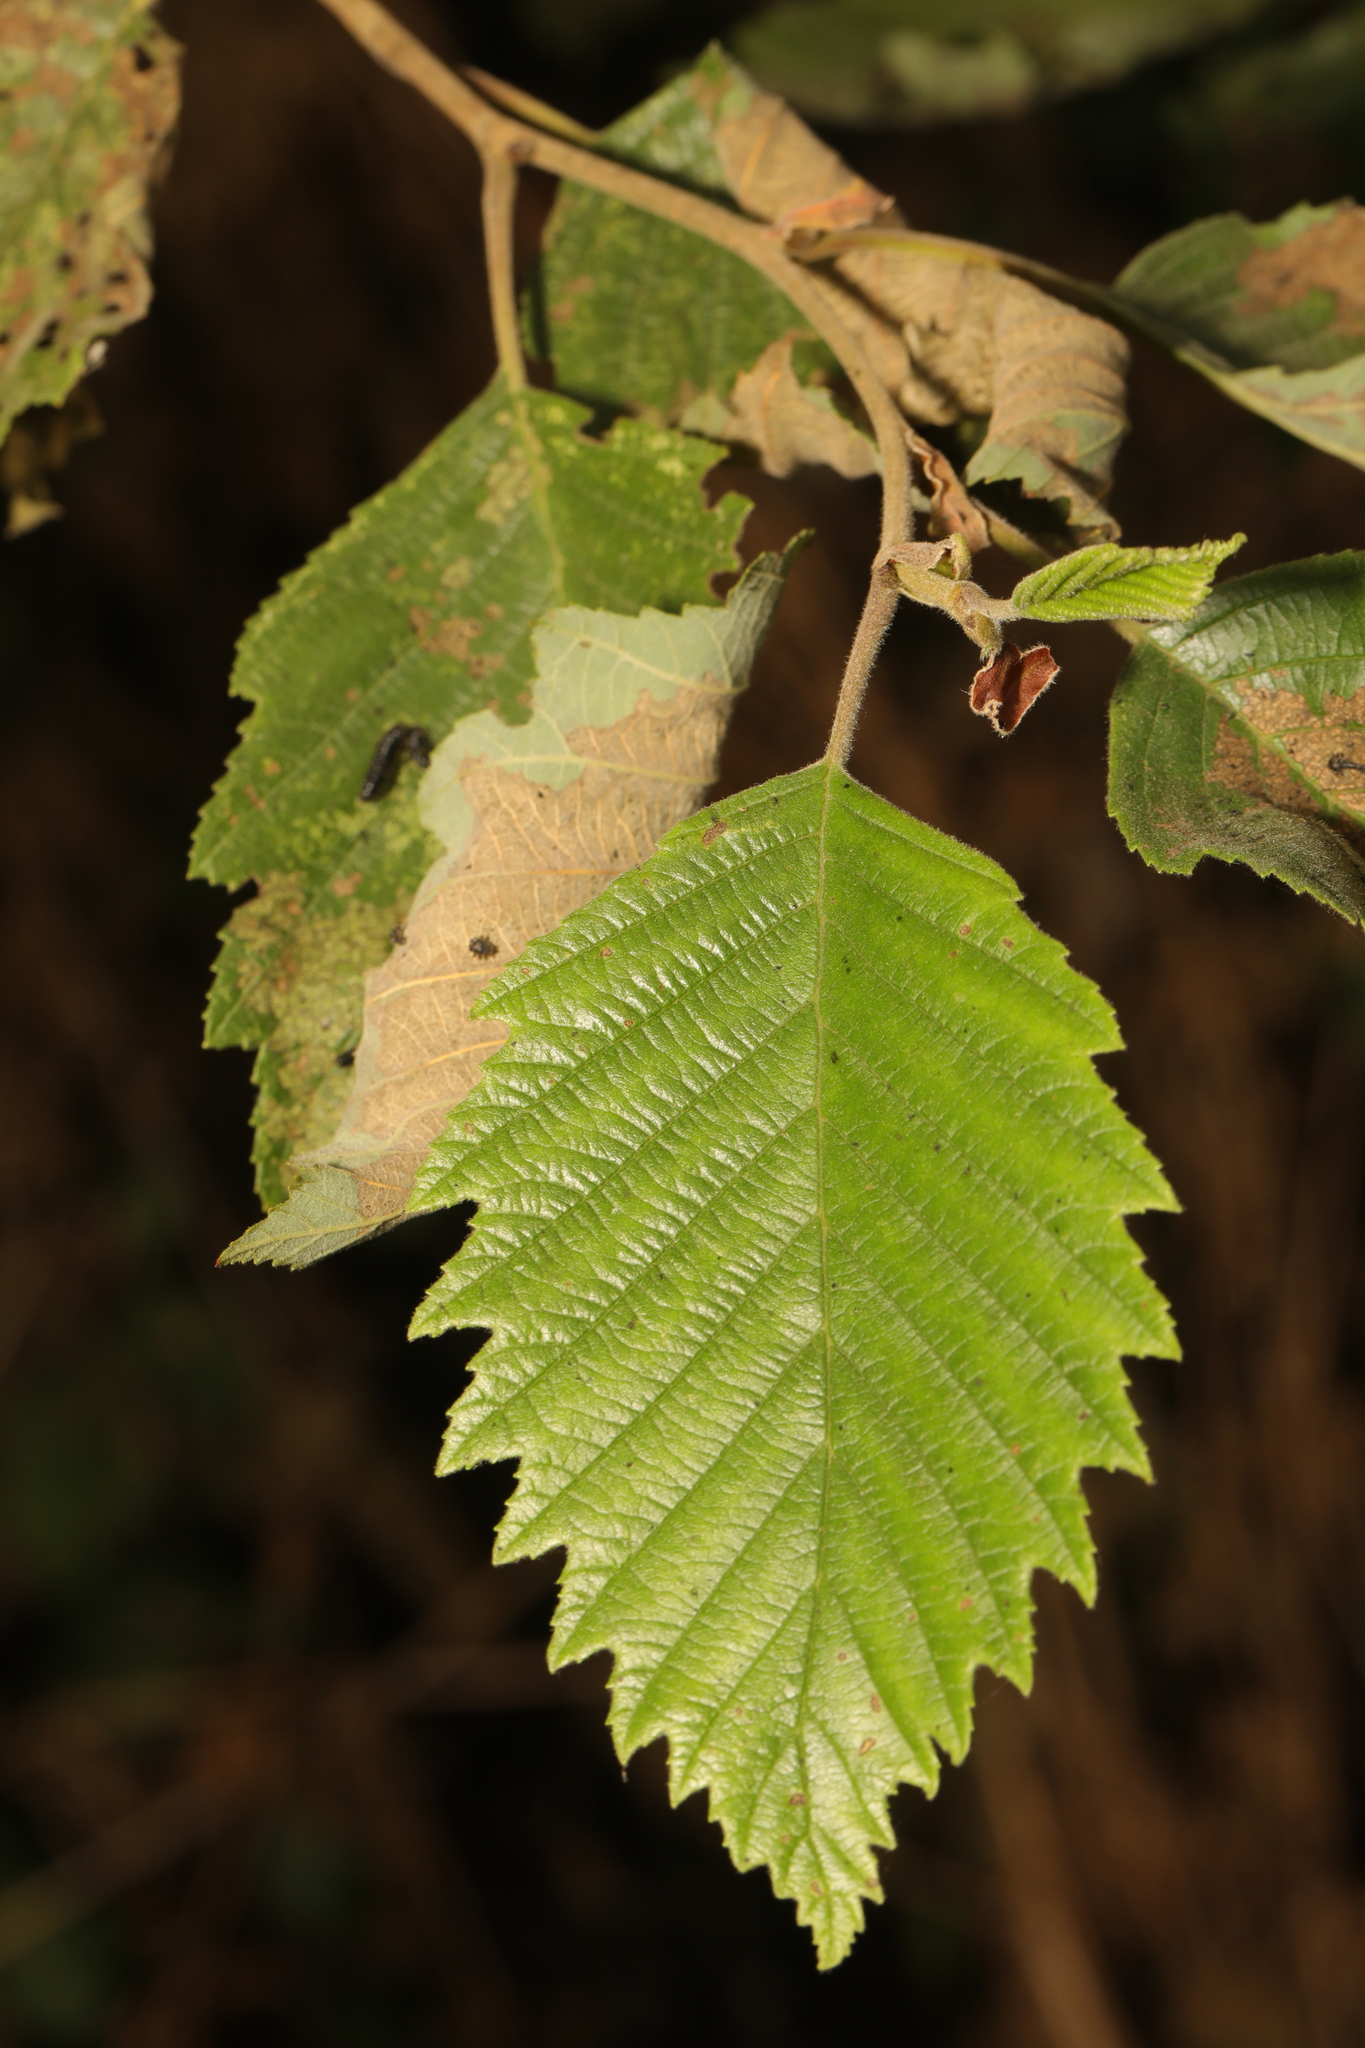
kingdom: Plantae
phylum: Tracheophyta
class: Magnoliopsida
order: Fagales
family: Betulaceae
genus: Alnus
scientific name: Alnus incana
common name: Grey alder
